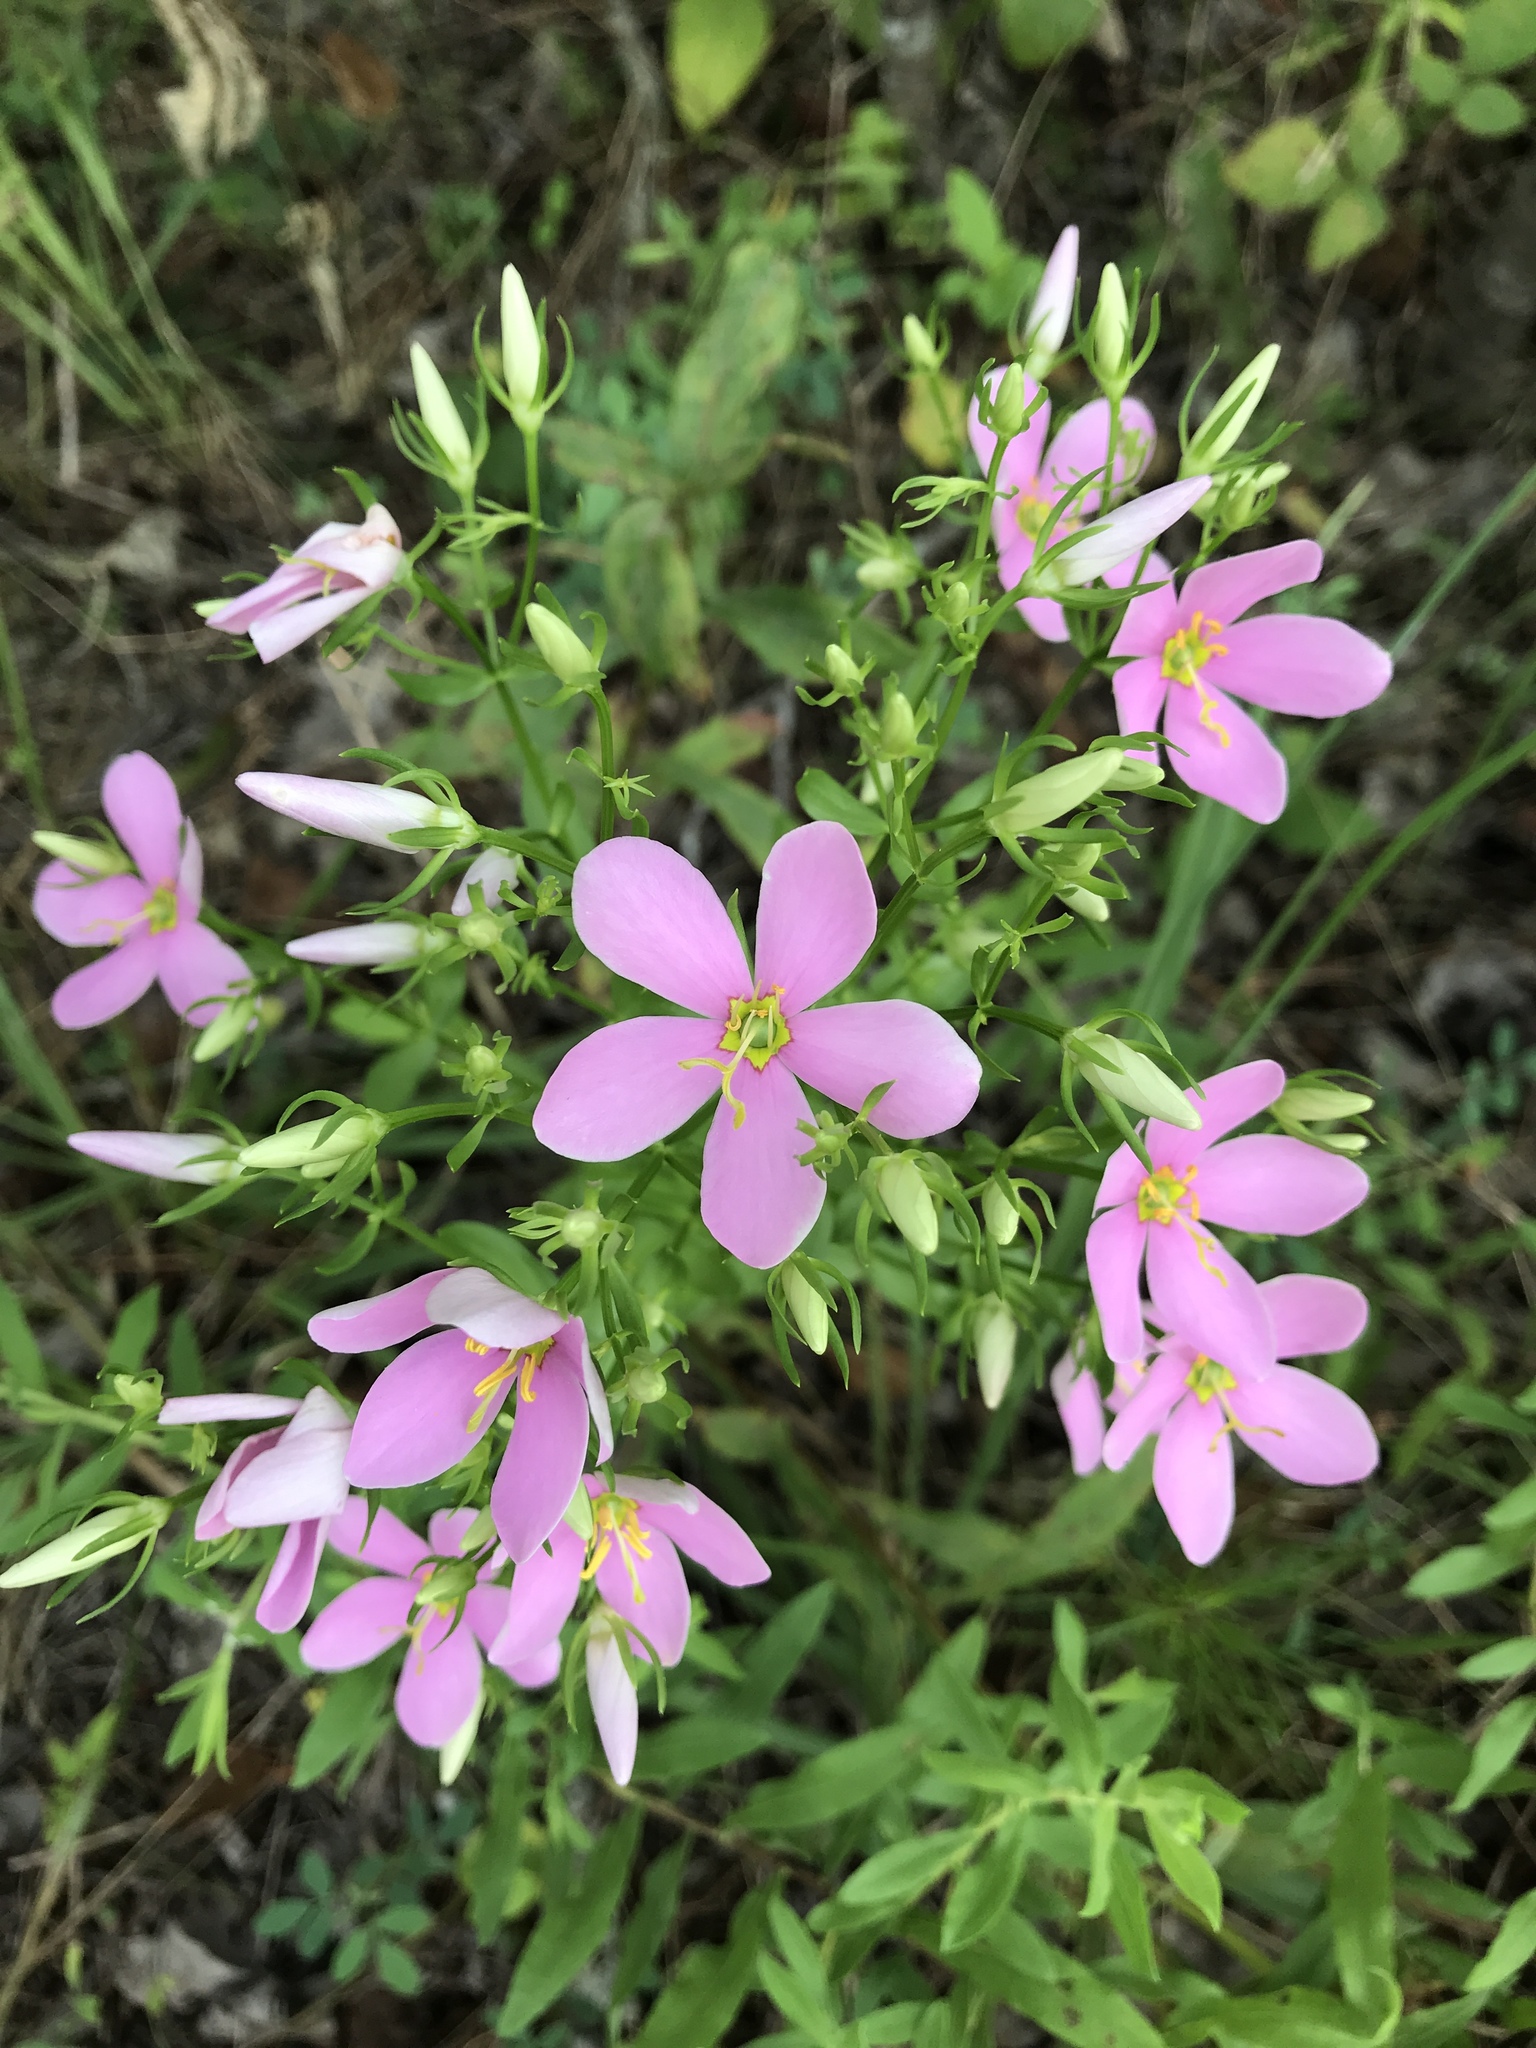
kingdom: Plantae
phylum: Tracheophyta
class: Magnoliopsida
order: Gentianales
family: Gentianaceae
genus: Sabatia
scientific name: Sabatia angularis
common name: Rose-pink
